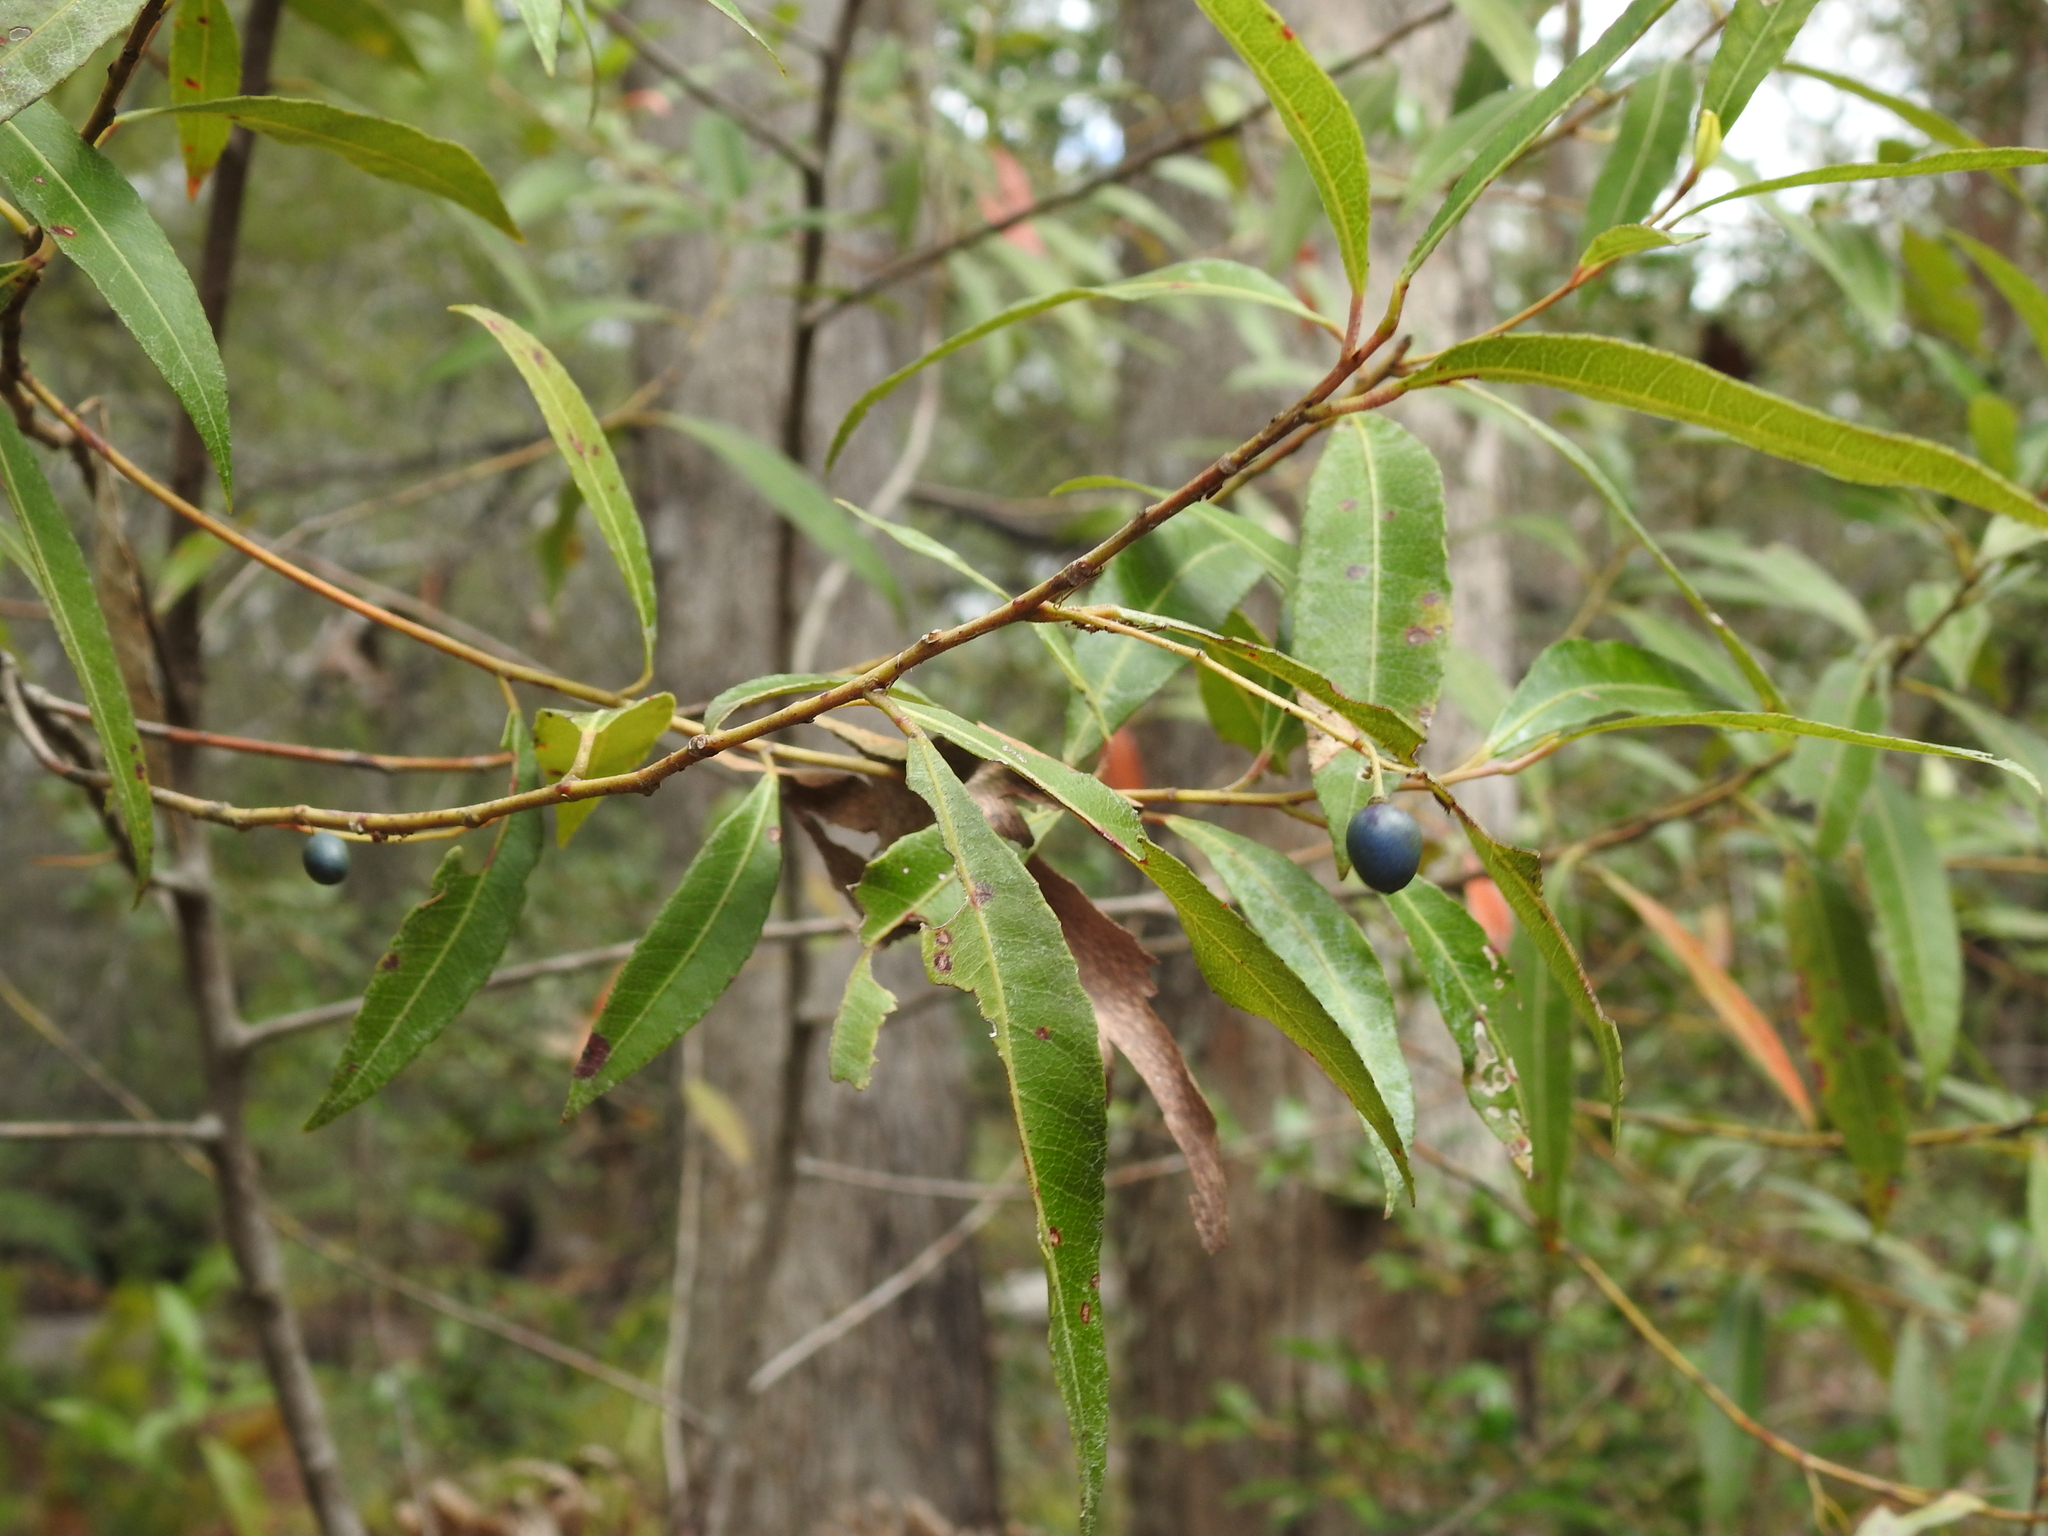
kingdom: Plantae
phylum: Tracheophyta
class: Magnoliopsida
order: Oxalidales
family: Elaeocarpaceae
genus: Elaeocarpus
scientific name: Elaeocarpus reticulatus
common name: Ash quandong
